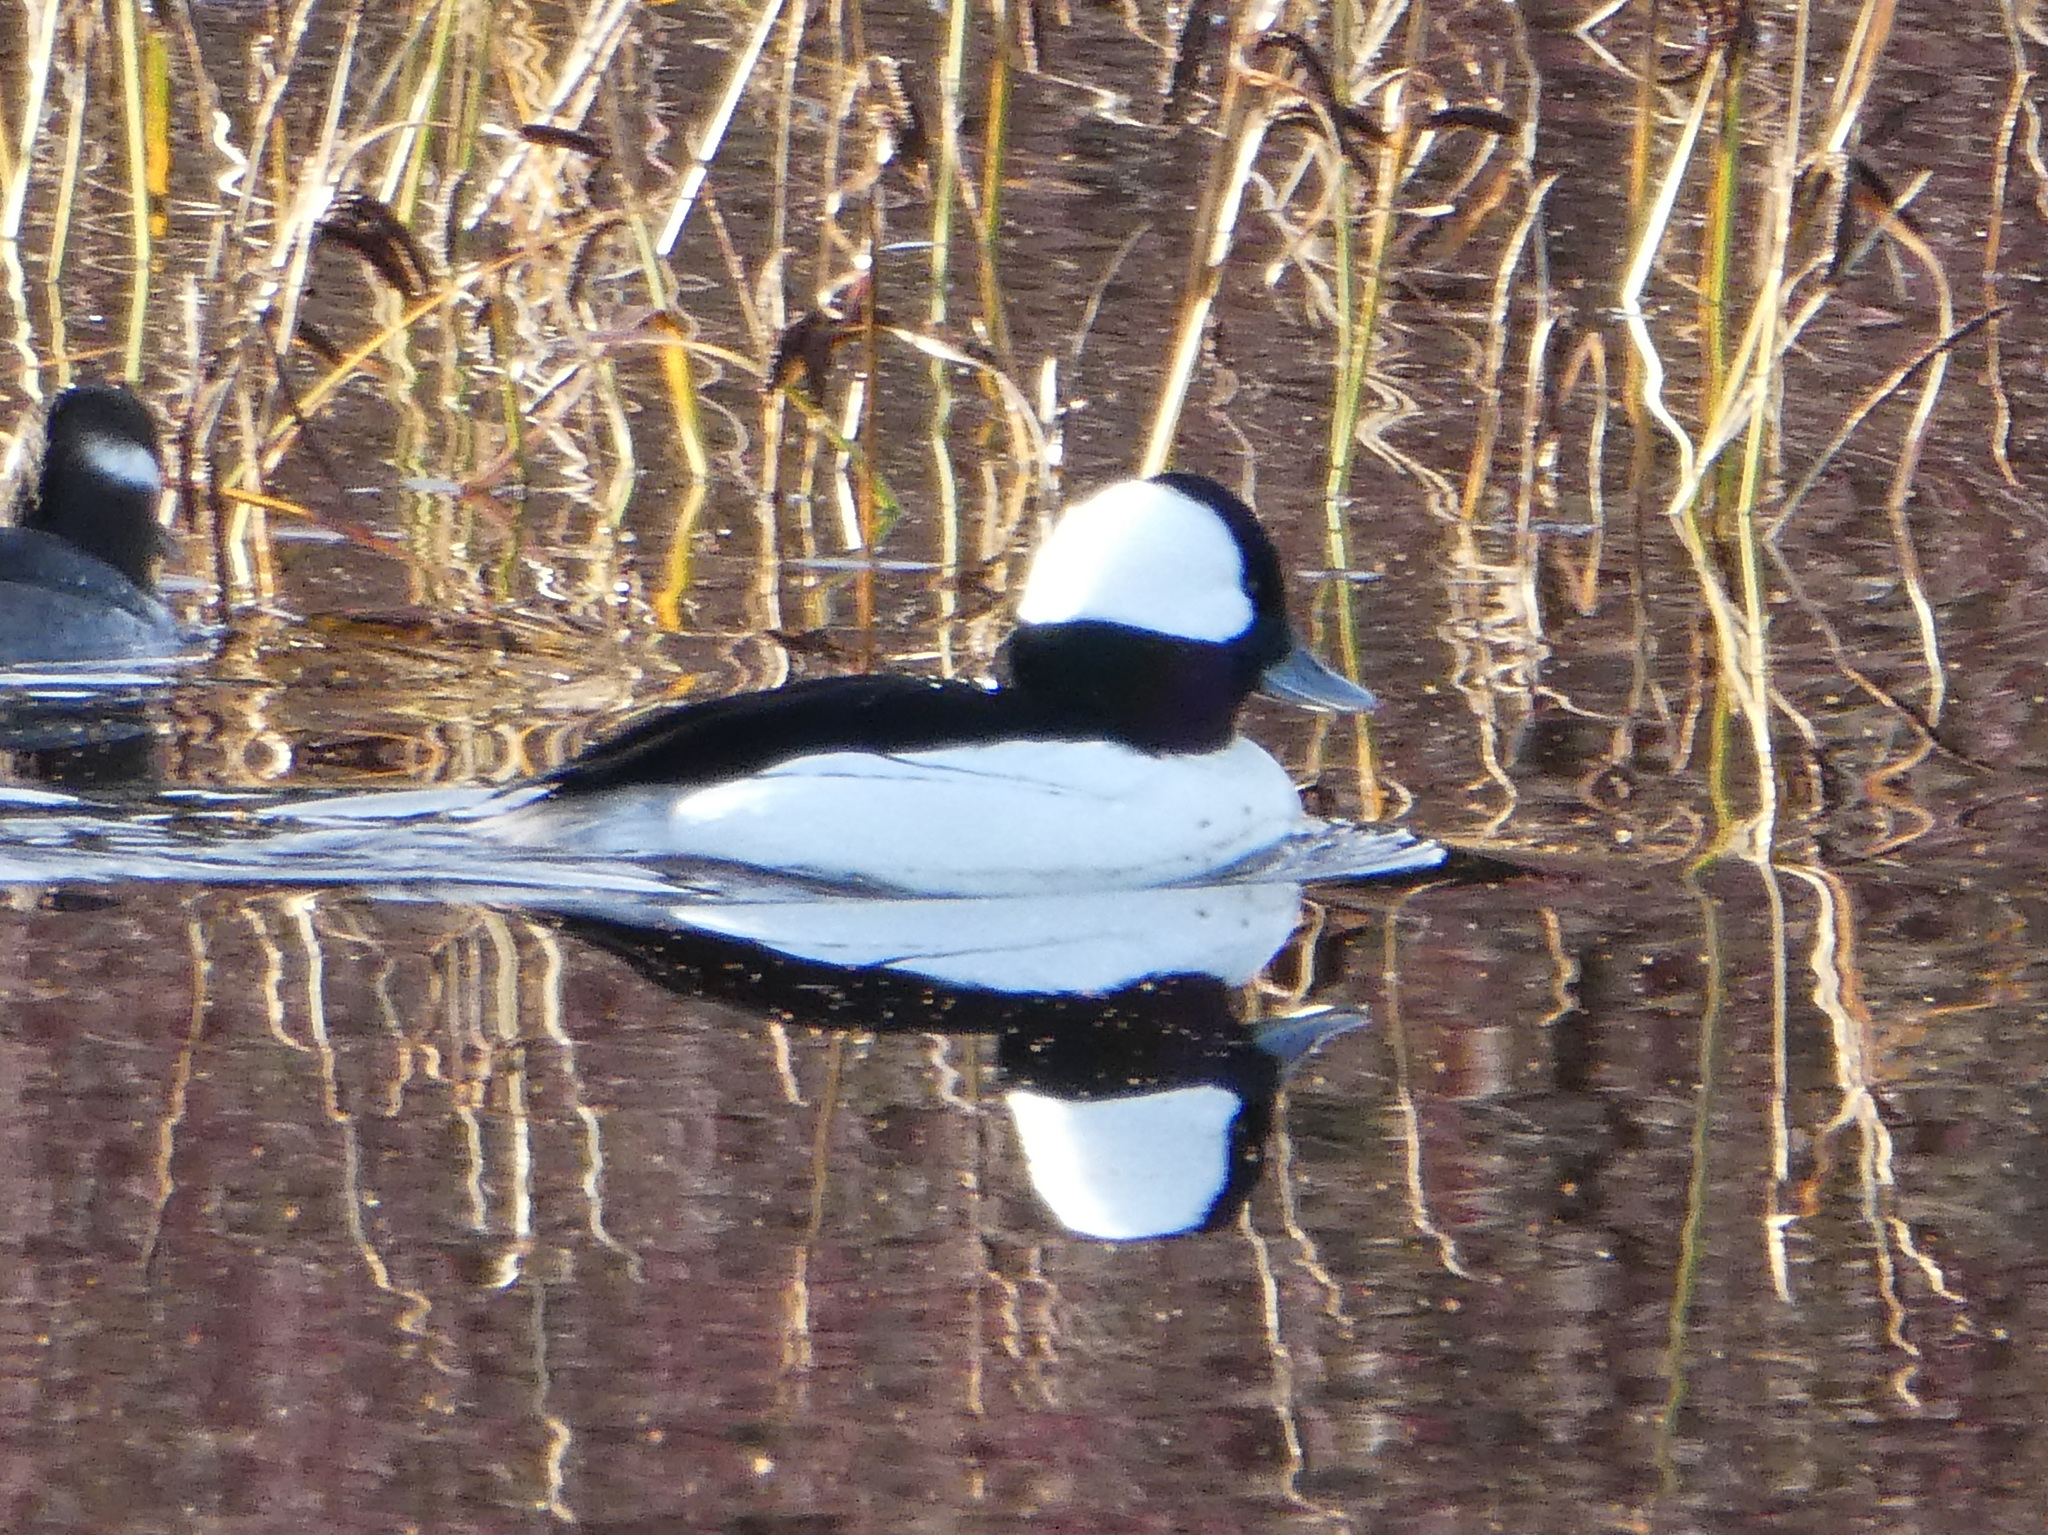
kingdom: Animalia
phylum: Chordata
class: Aves
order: Anseriformes
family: Anatidae
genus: Bucephala
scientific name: Bucephala albeola
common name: Bufflehead
